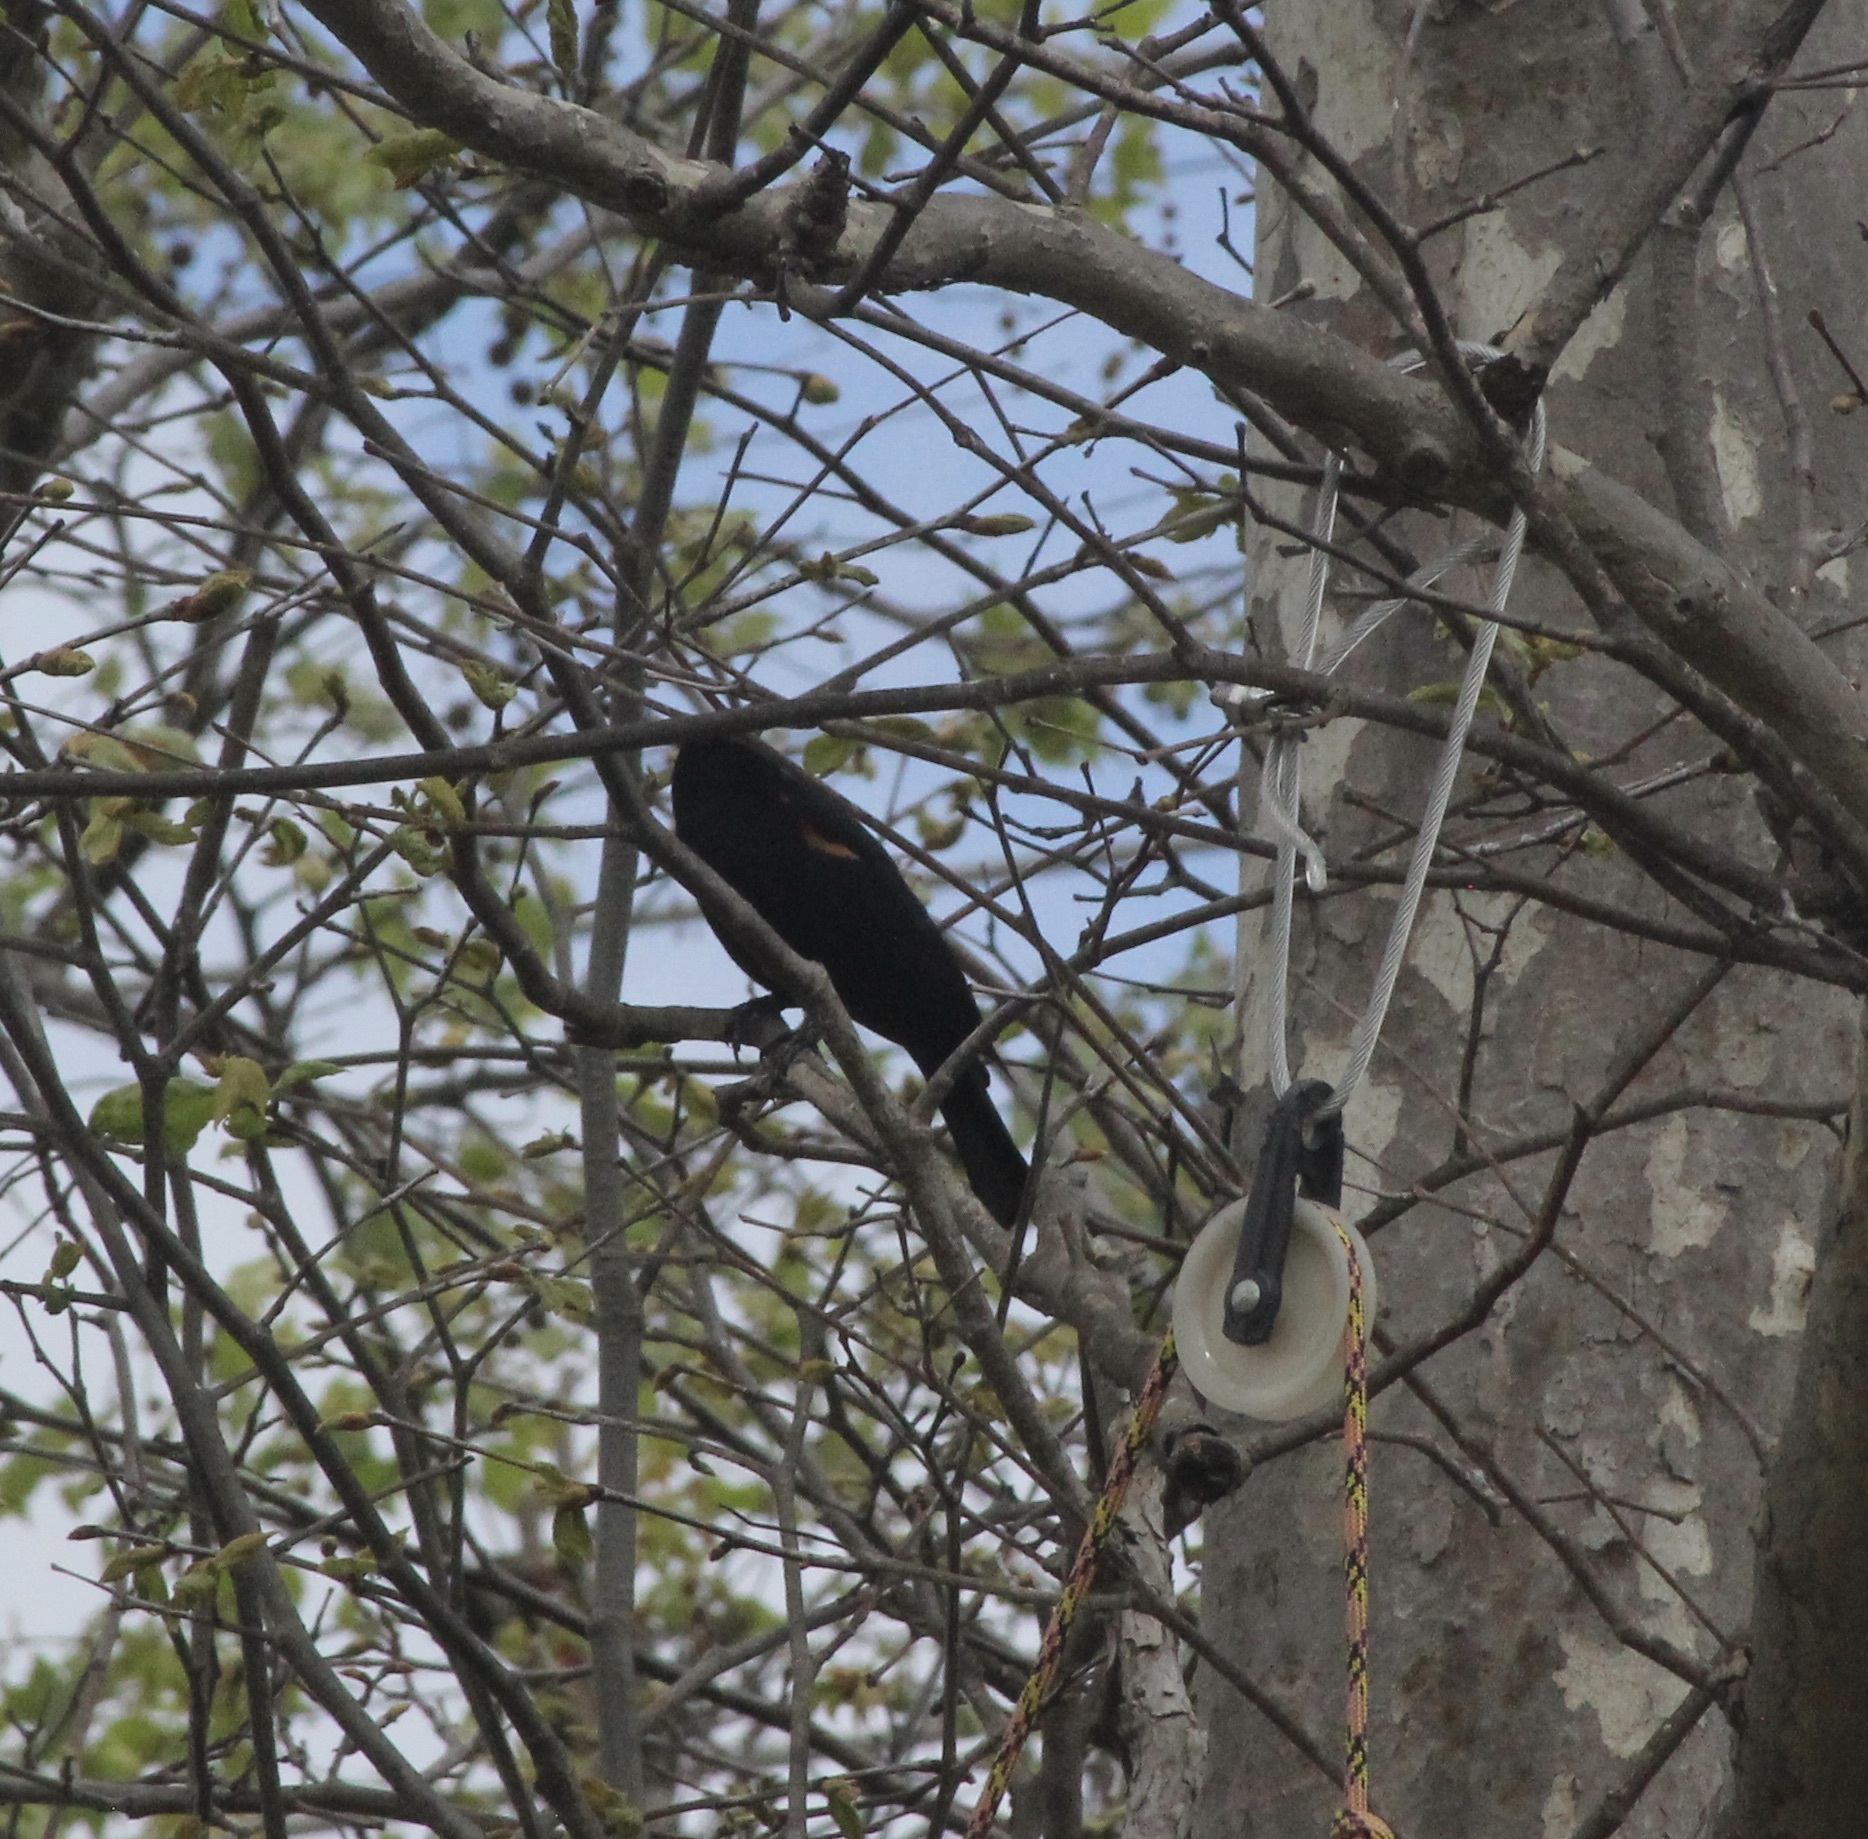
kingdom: Animalia
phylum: Chordata
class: Aves
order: Passeriformes
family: Icteridae
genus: Agelaius
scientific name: Agelaius phoeniceus
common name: Red-winged blackbird
